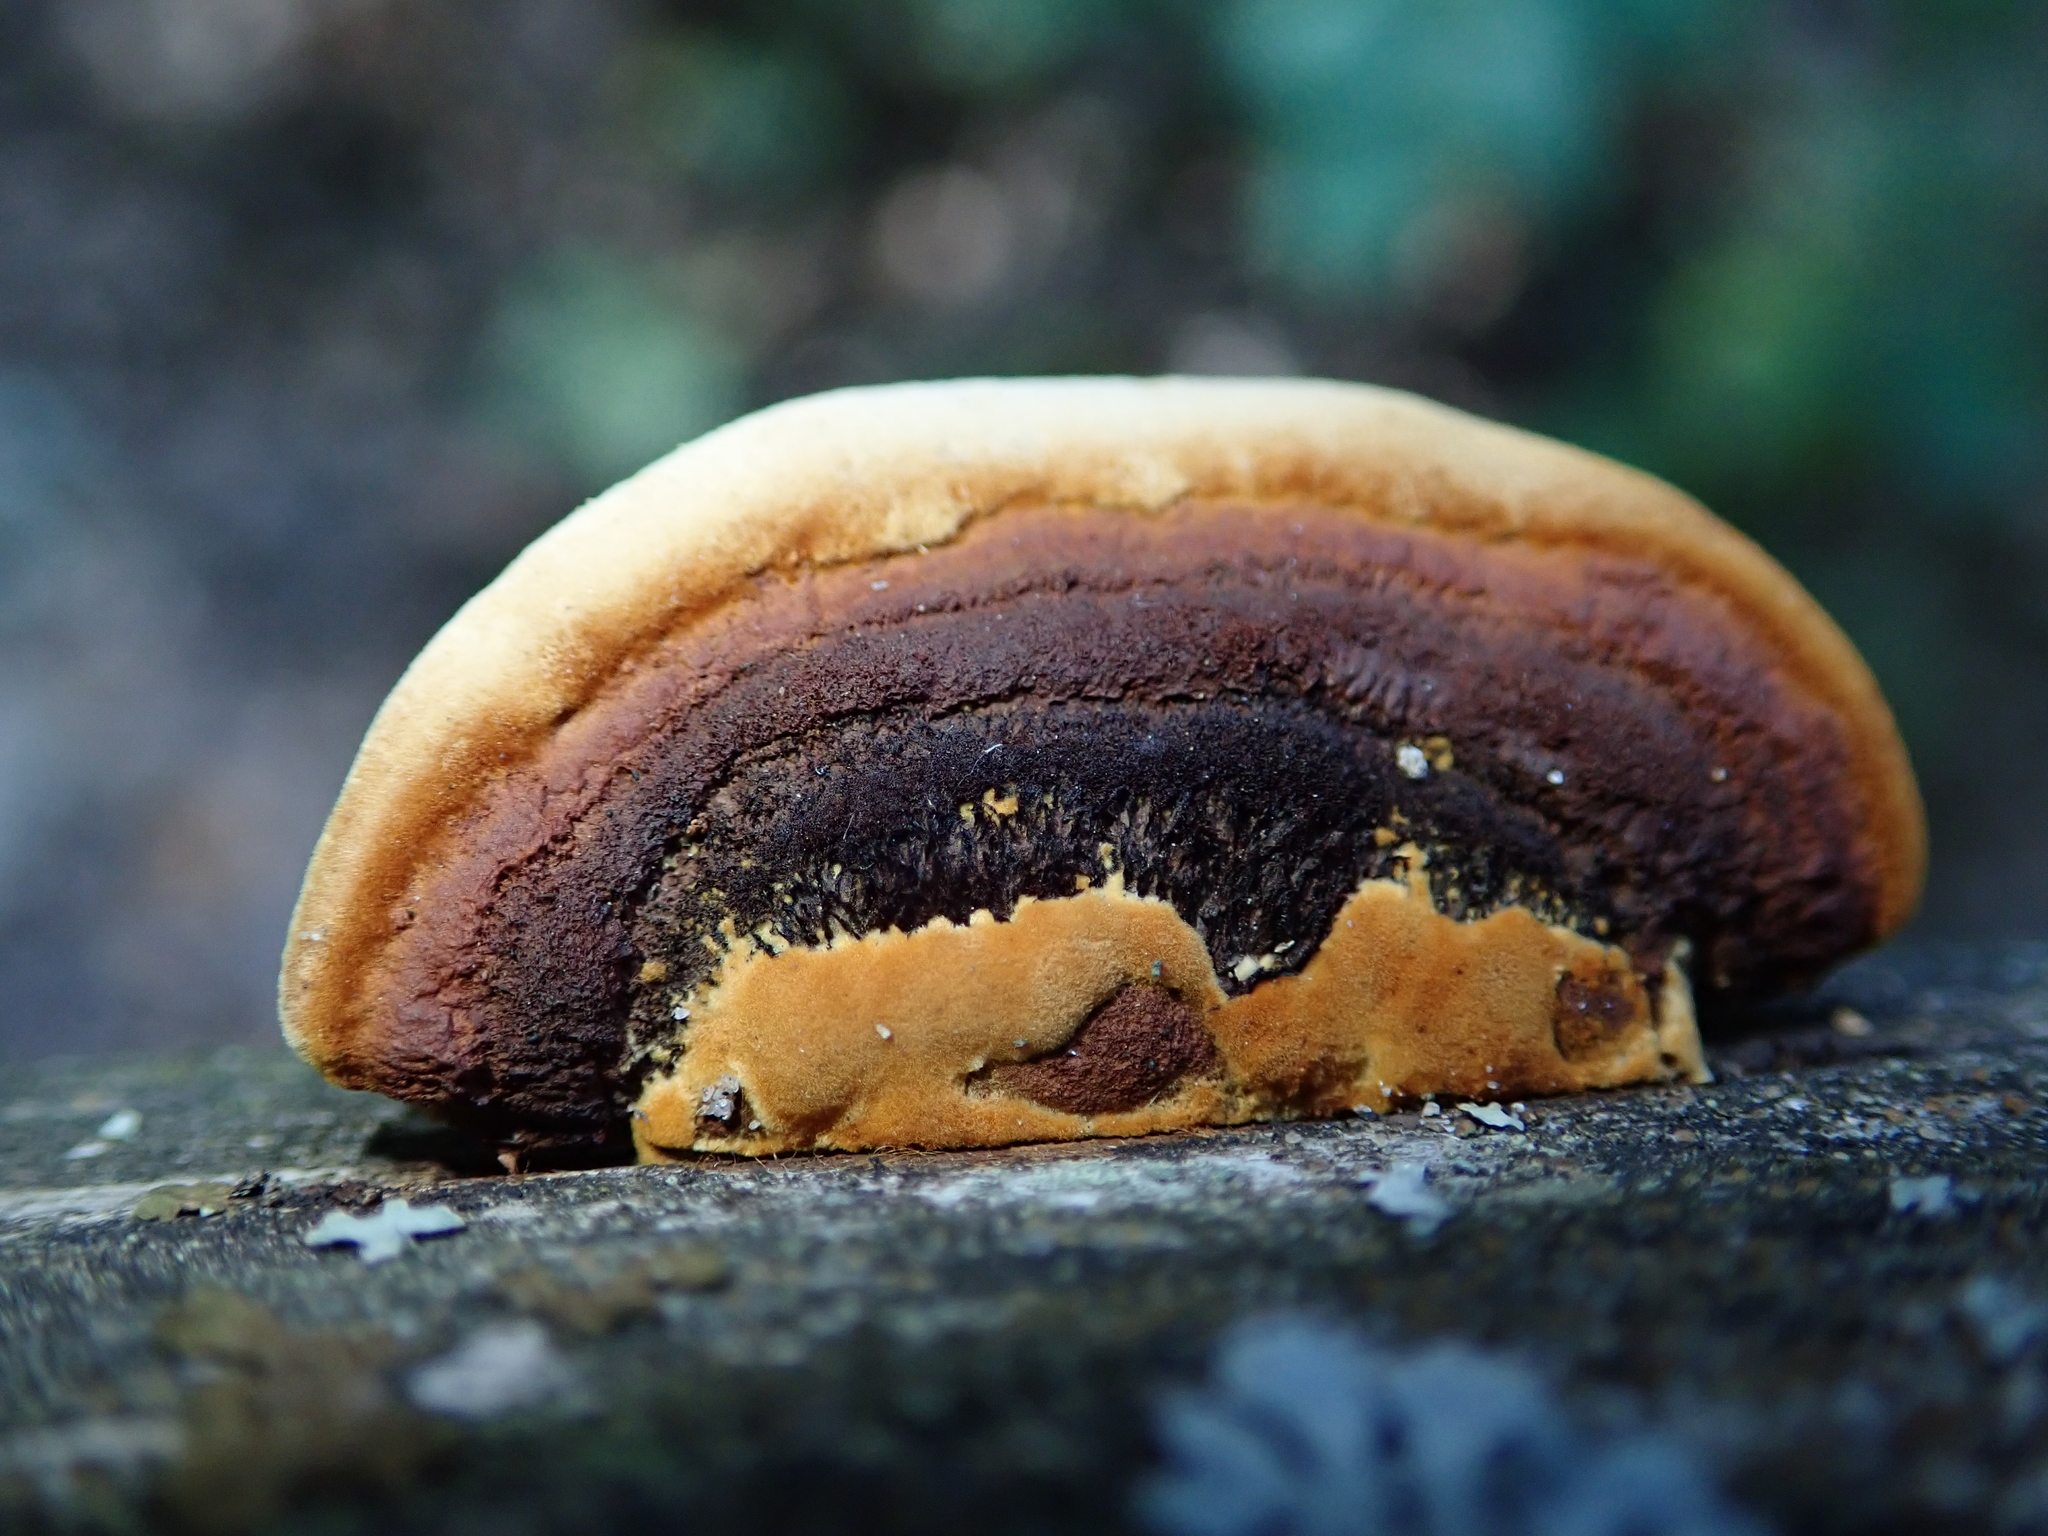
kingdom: Fungi
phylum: Basidiomycota
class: Agaricomycetes
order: Gloeophyllales
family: Gloeophyllaceae
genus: Gloeophyllum
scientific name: Gloeophyllum sepiarium
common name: Conifer mazegill
